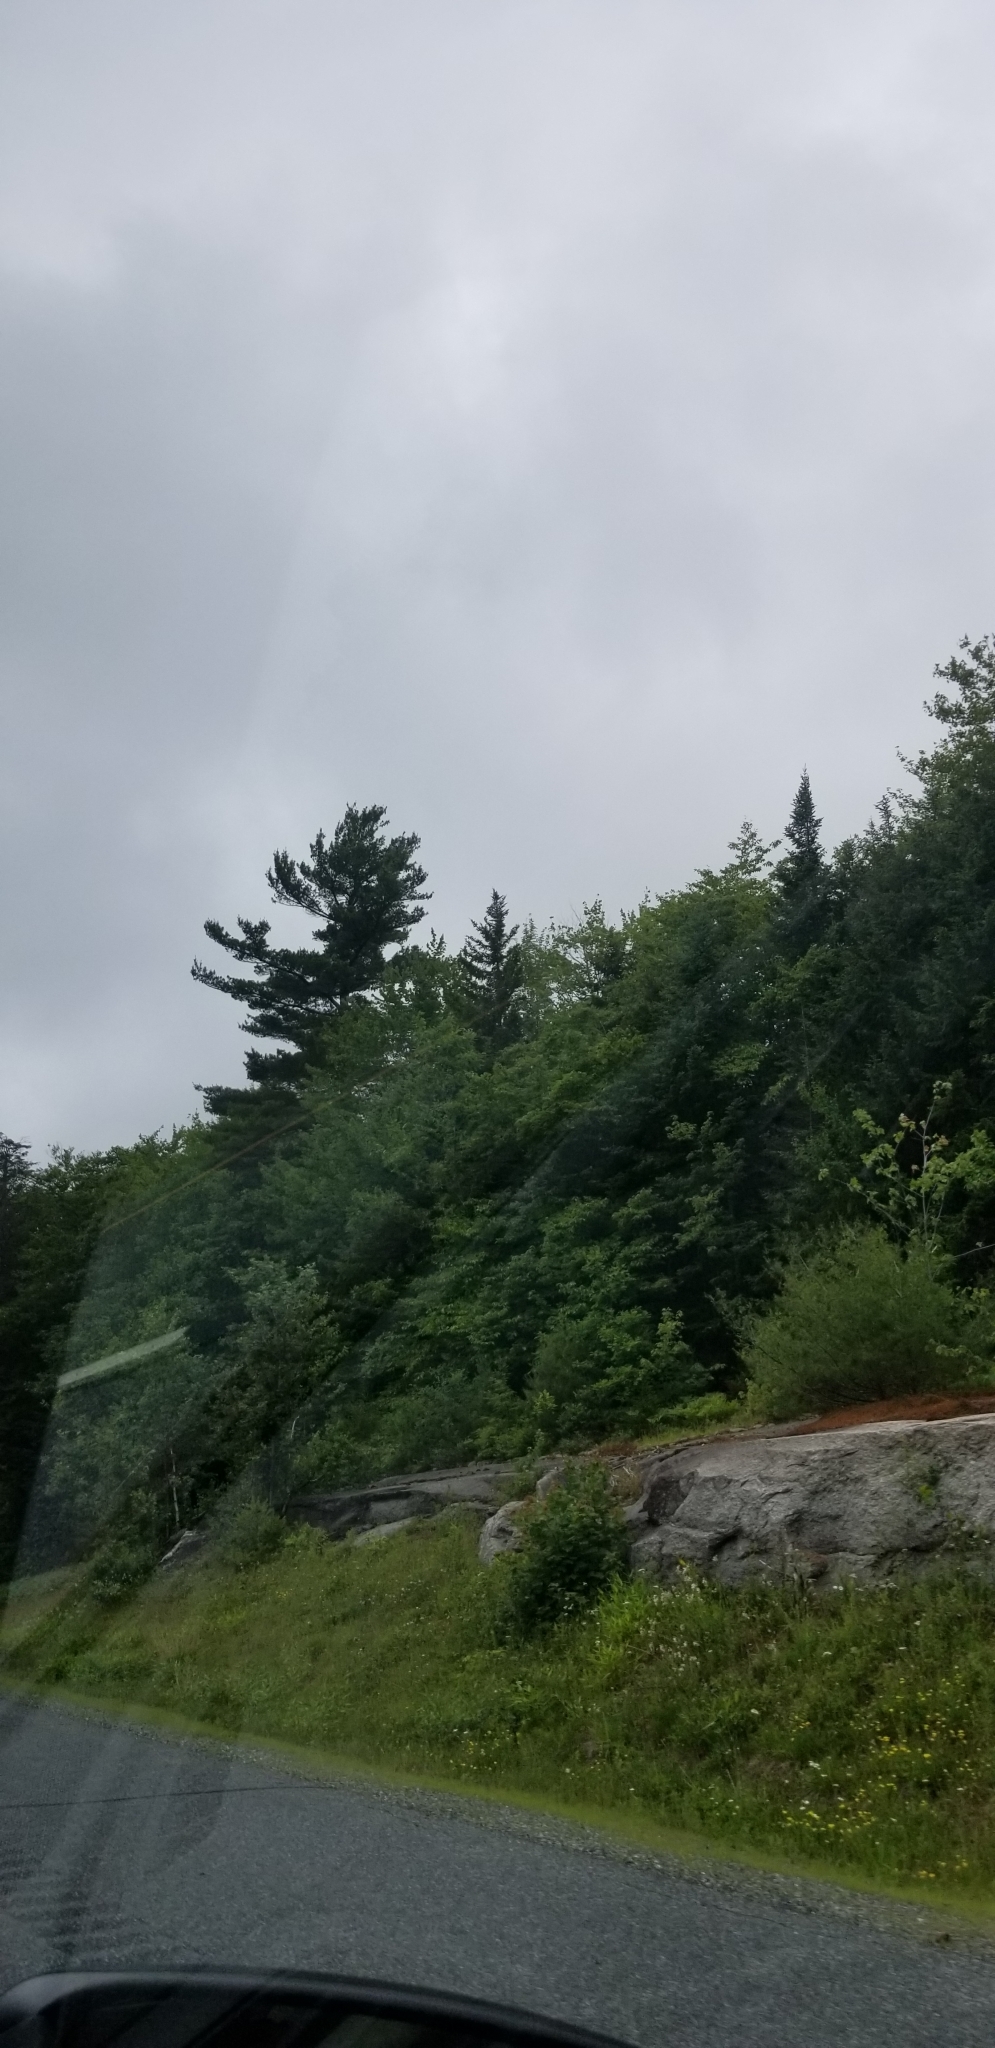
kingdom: Plantae
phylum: Tracheophyta
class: Pinopsida
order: Pinales
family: Pinaceae
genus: Pinus
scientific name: Pinus strobus
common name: Weymouth pine
